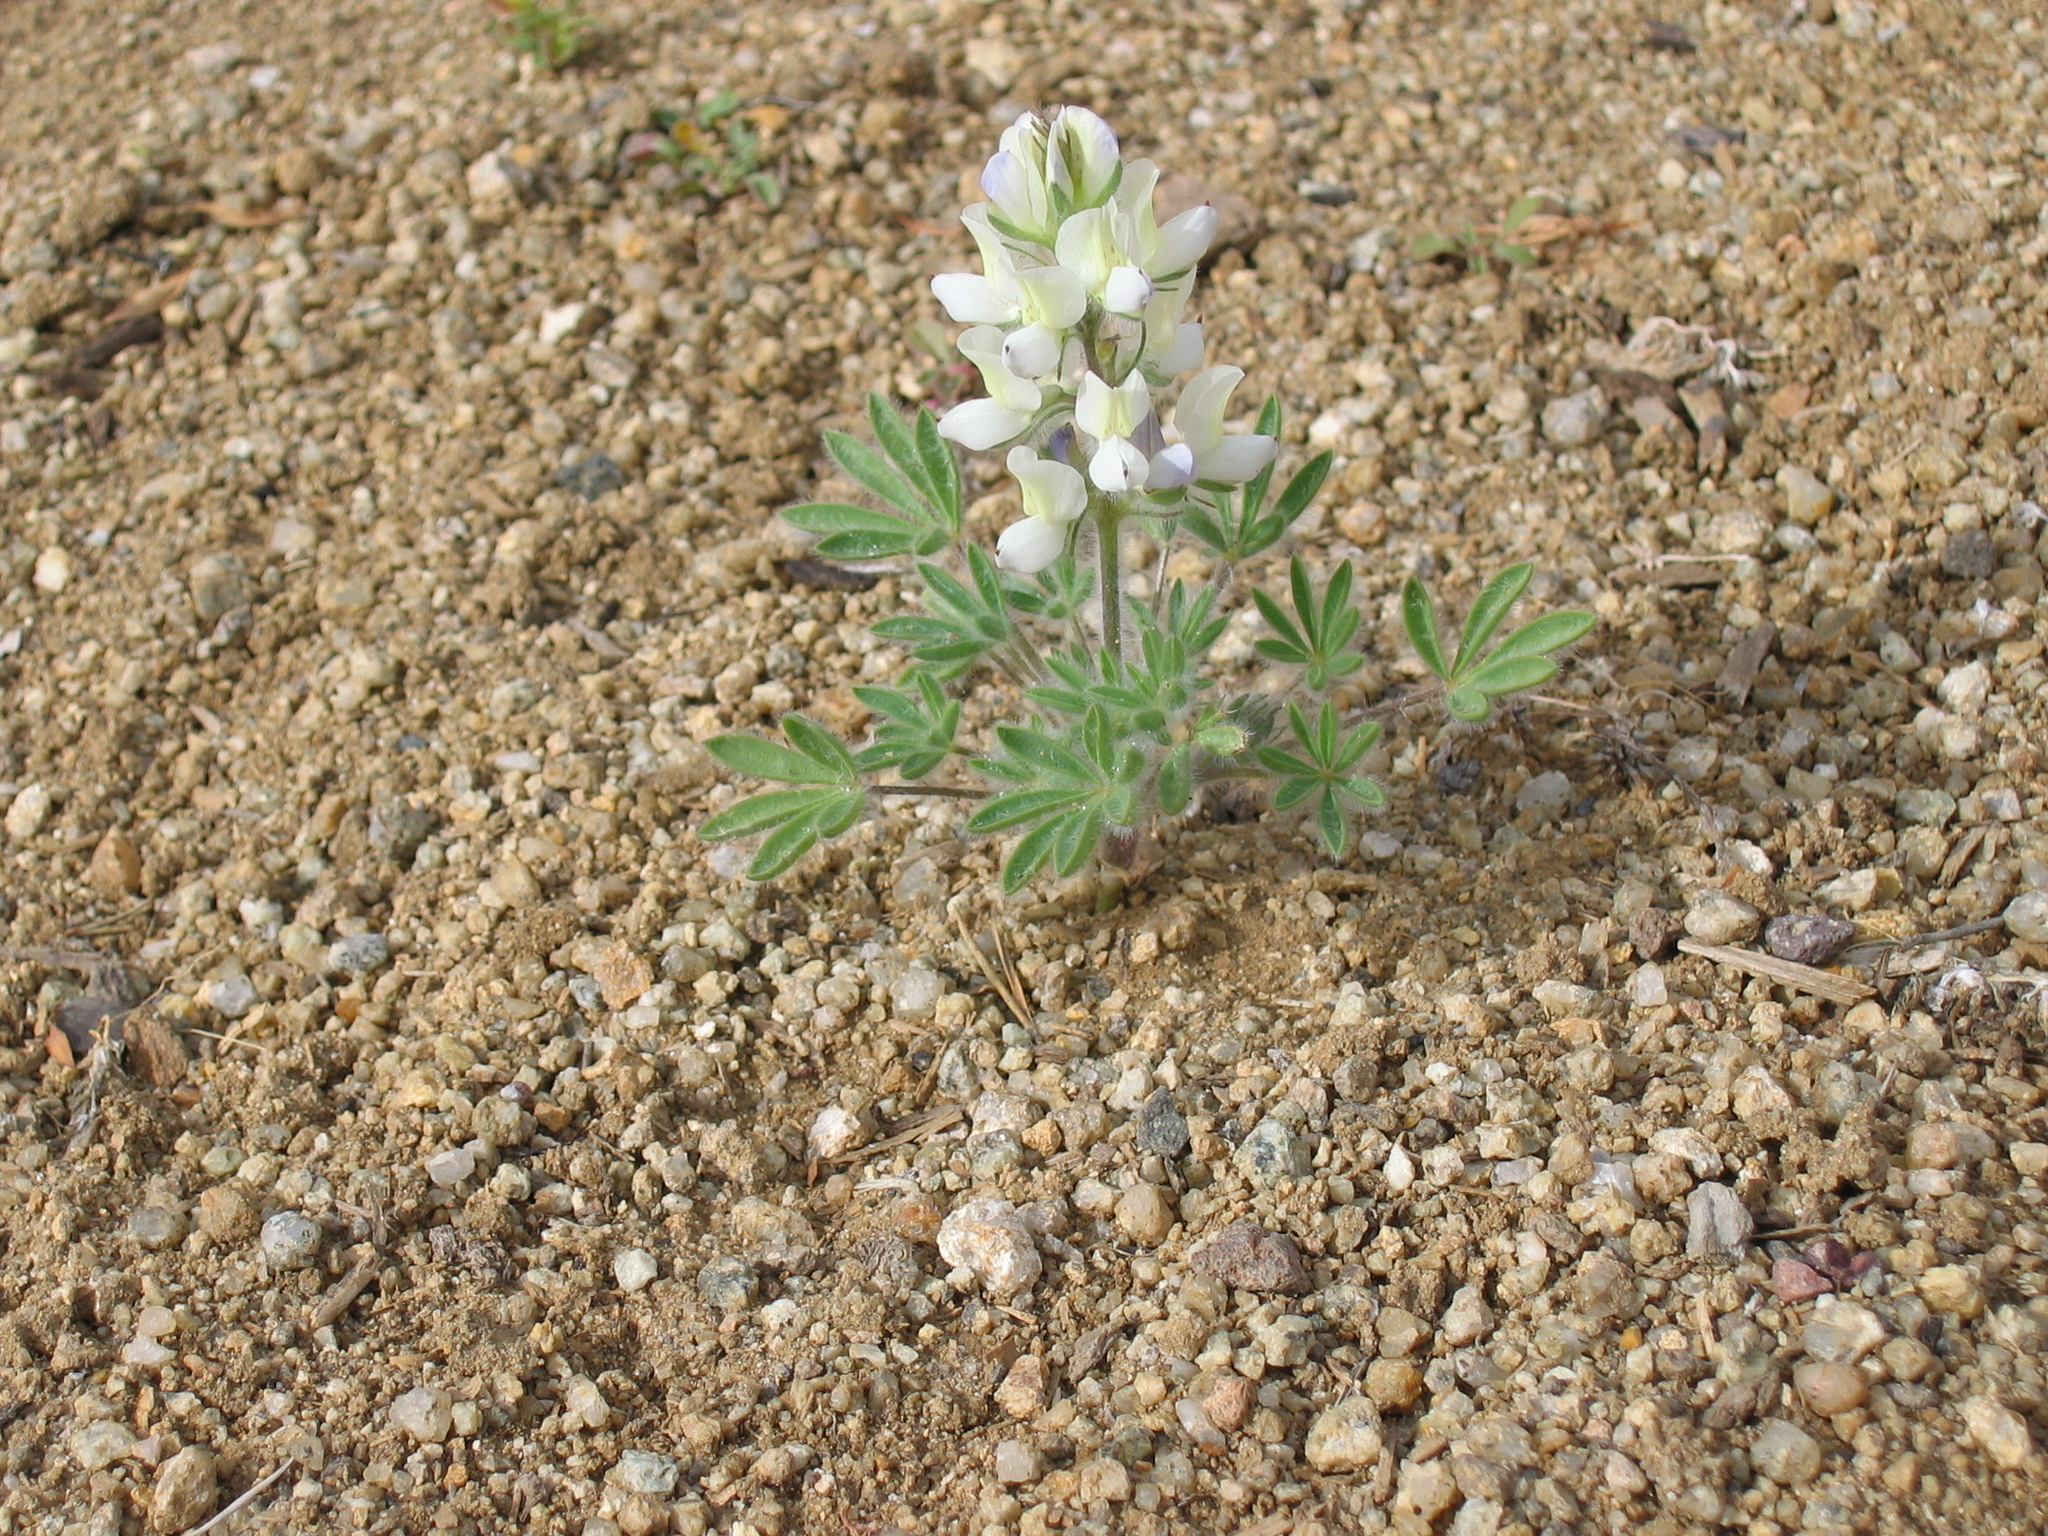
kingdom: Plantae
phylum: Tracheophyta
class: Magnoliopsida
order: Fabales
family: Fabaceae
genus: Lupinus
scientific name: Lupinus malacophyllus
